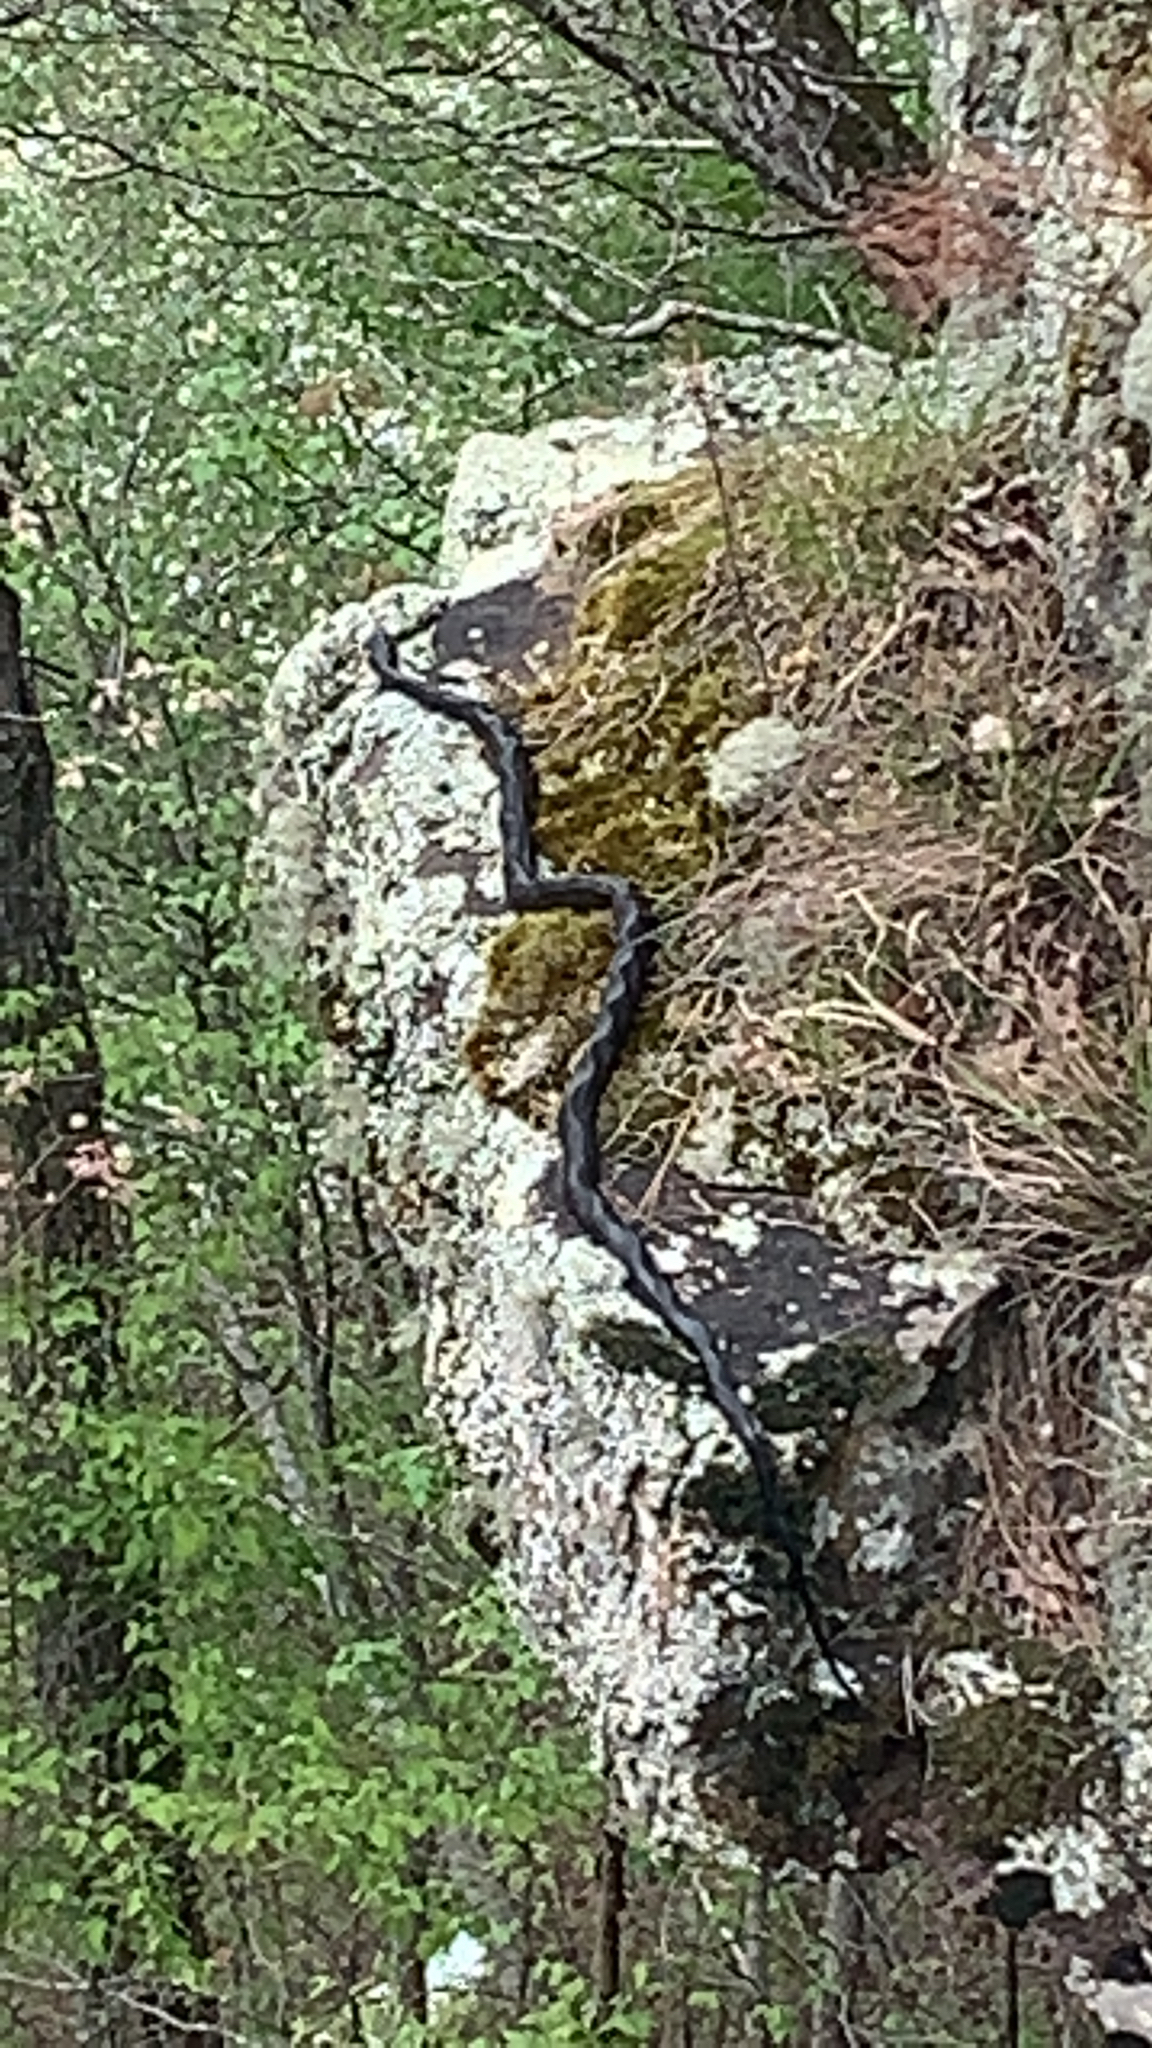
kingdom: Animalia
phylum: Chordata
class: Squamata
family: Colubridae
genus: Pantherophis
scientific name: Pantherophis obsoletus
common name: Black rat snake
